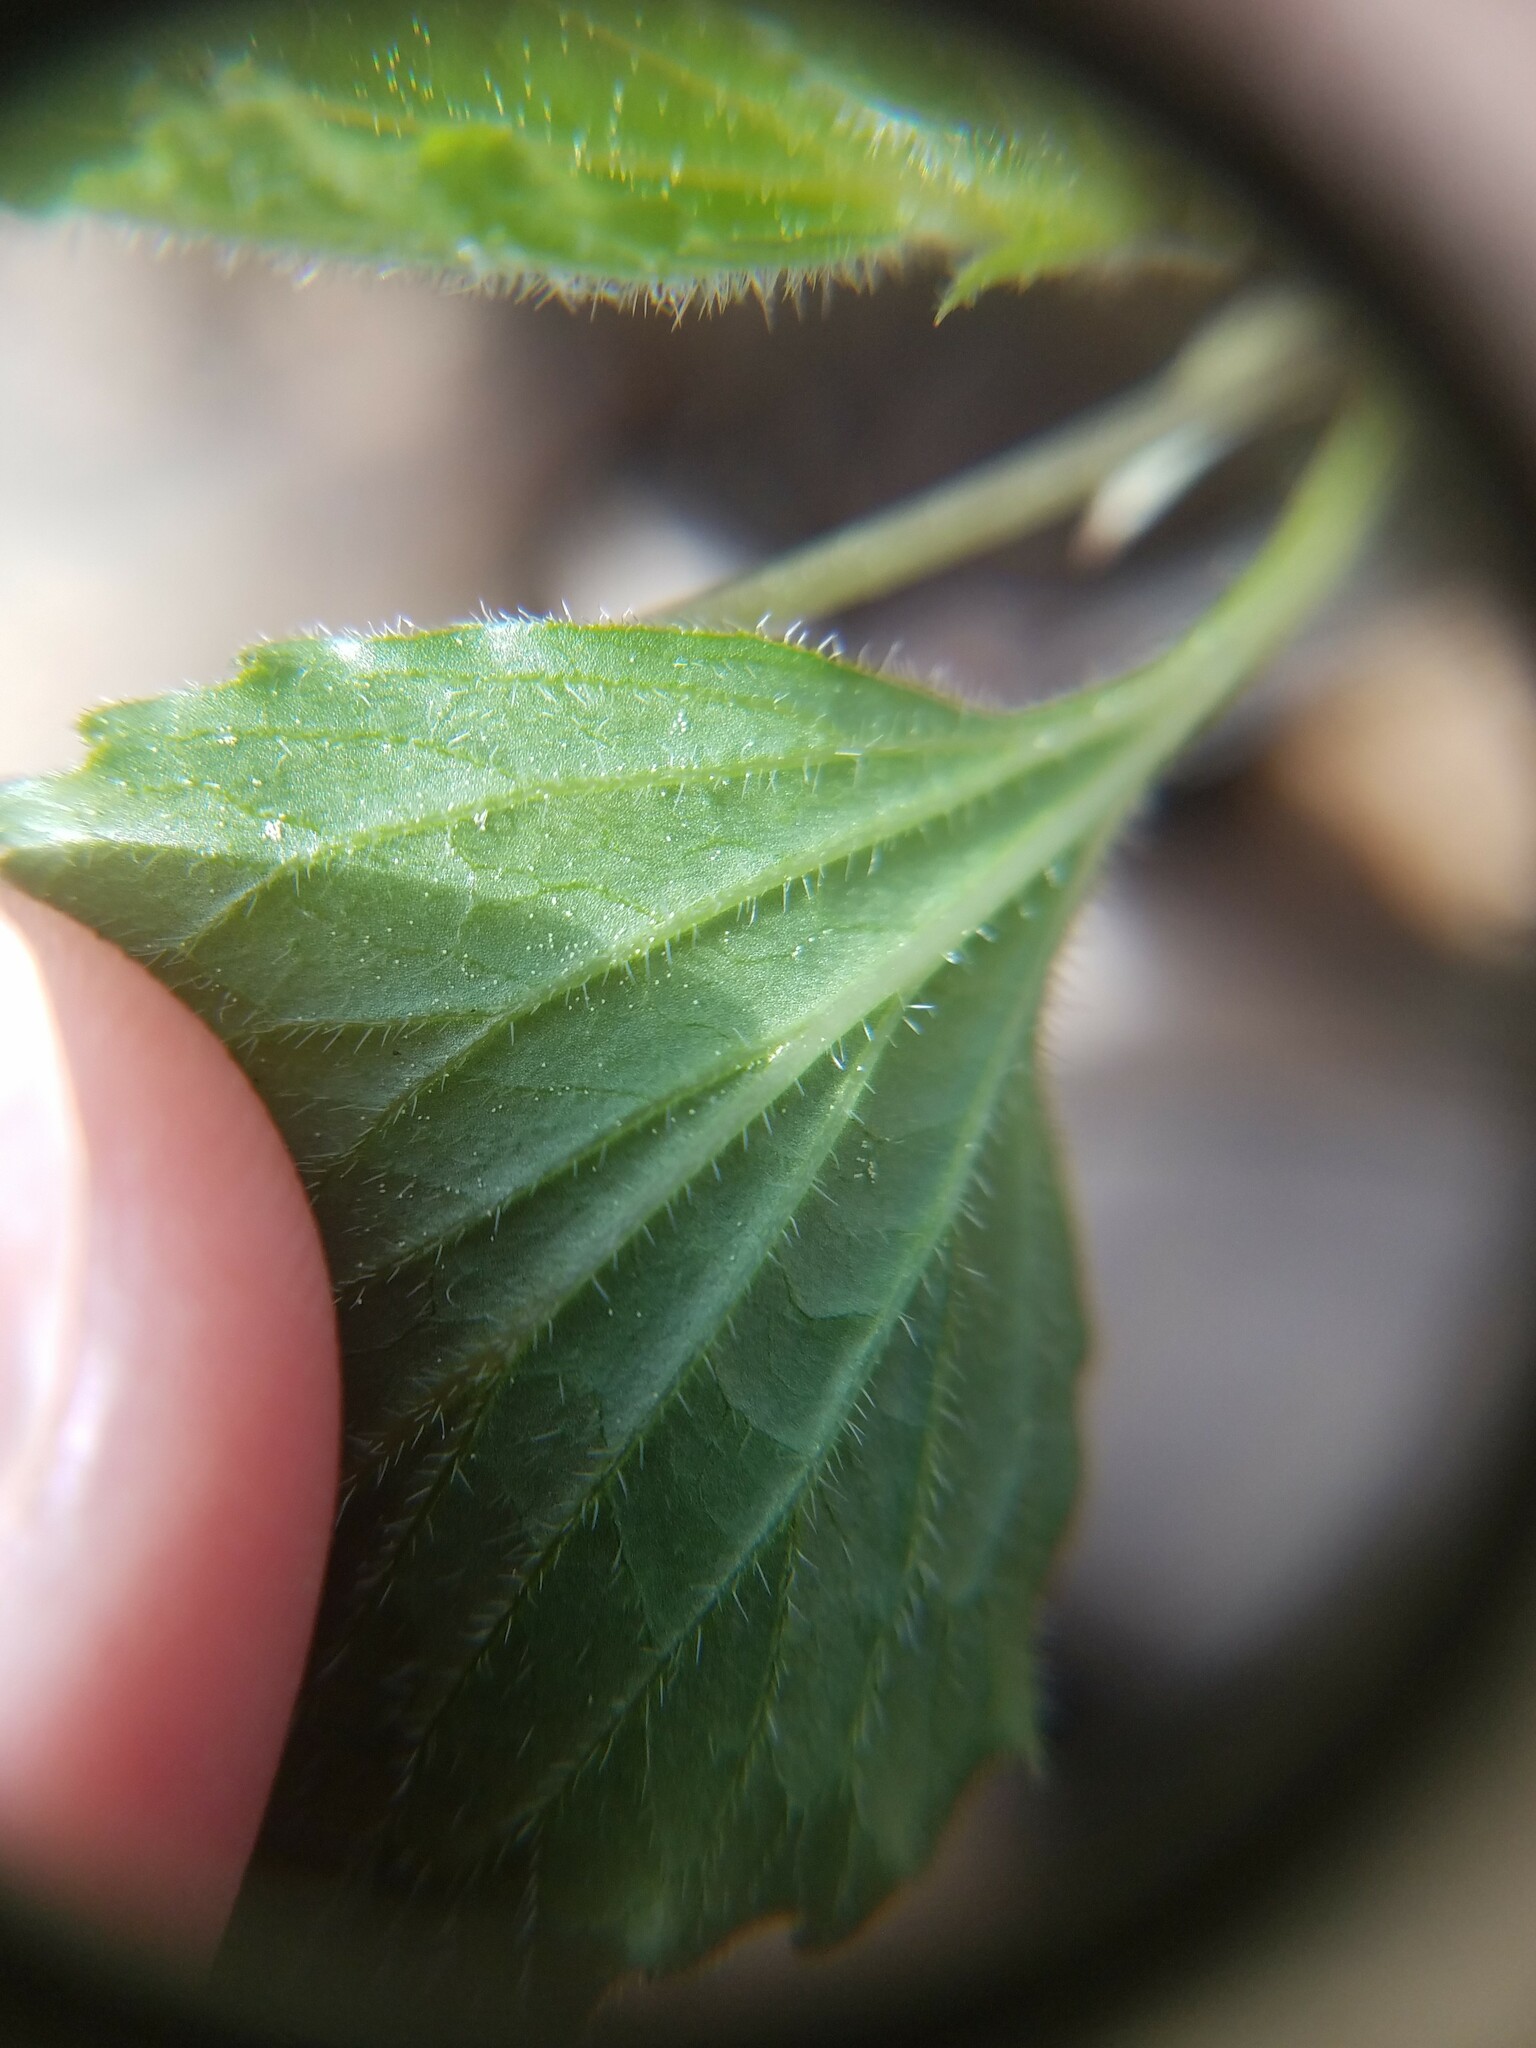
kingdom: Plantae
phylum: Tracheophyta
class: Magnoliopsida
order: Malpighiales
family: Violaceae
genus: Viola
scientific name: Viola tripartita
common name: Three-part violet
